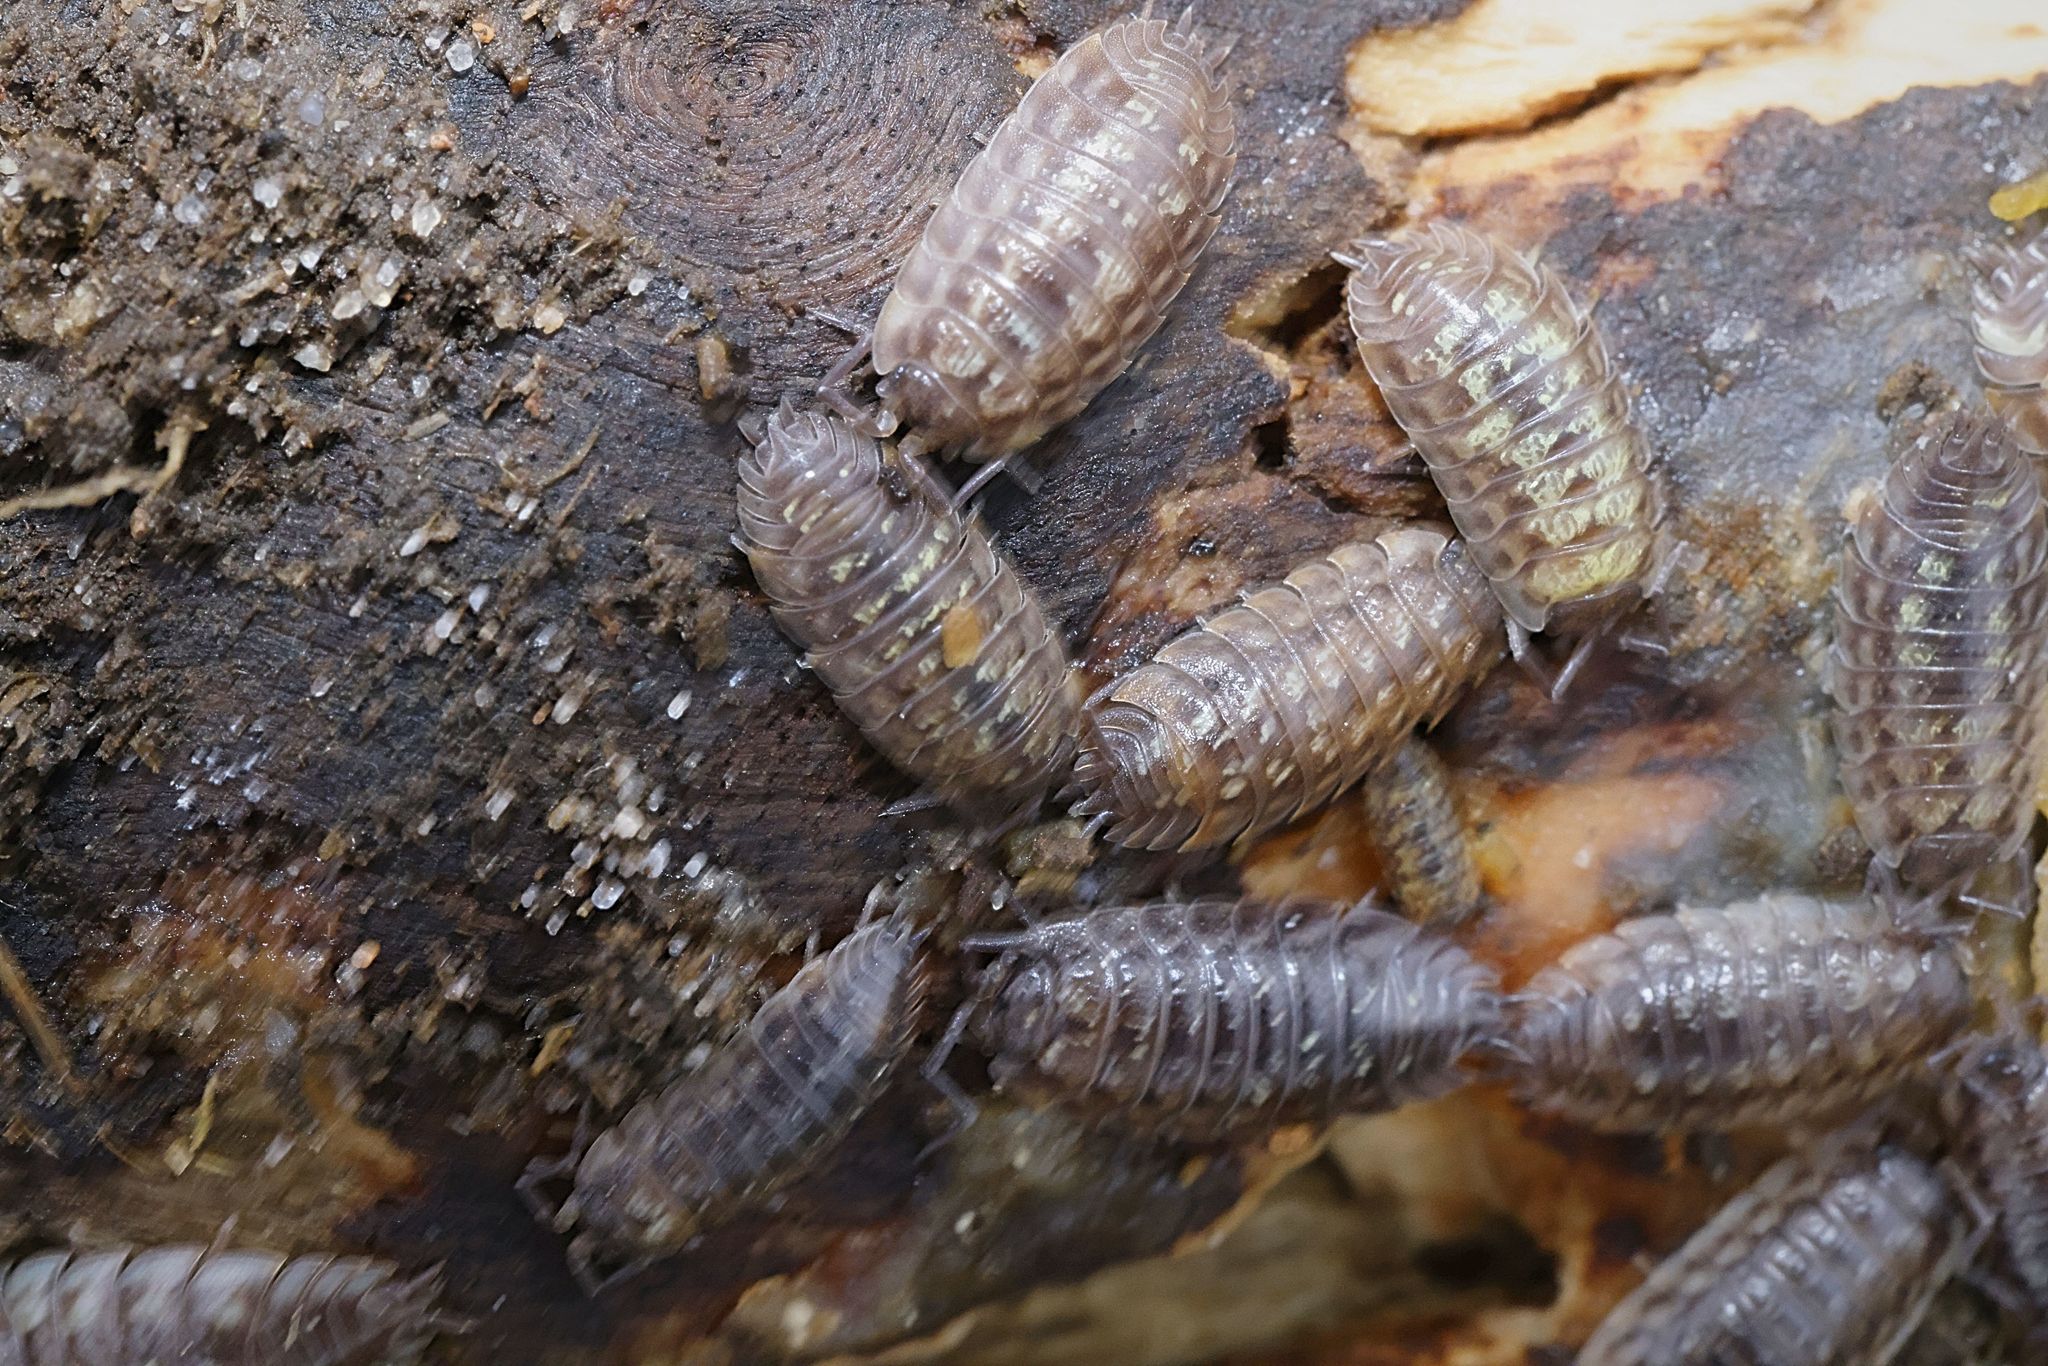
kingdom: Animalia
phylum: Arthropoda
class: Malacostraca
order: Isopoda
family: Oniscidae
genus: Oniscus
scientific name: Oniscus asellus
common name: Common shiny woodlouse
